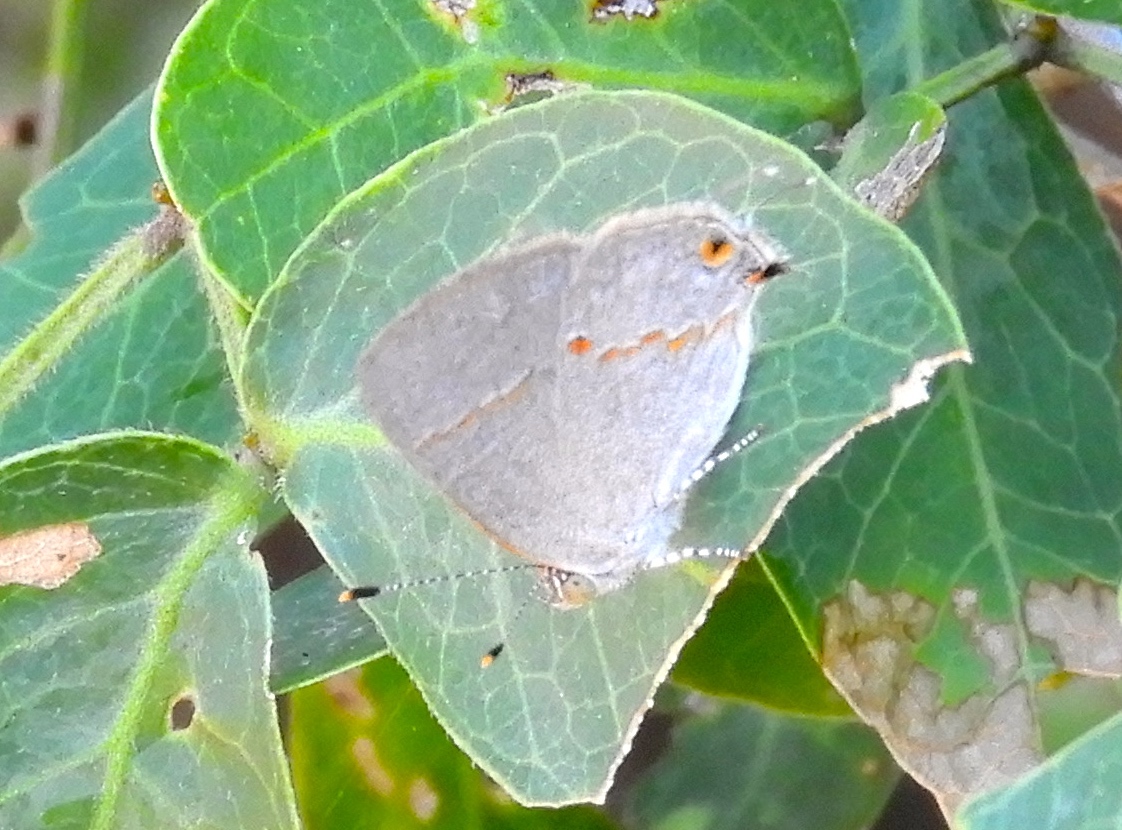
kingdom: Animalia
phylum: Arthropoda
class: Insecta
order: Lepidoptera
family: Lycaenidae
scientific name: Lycaenidae
